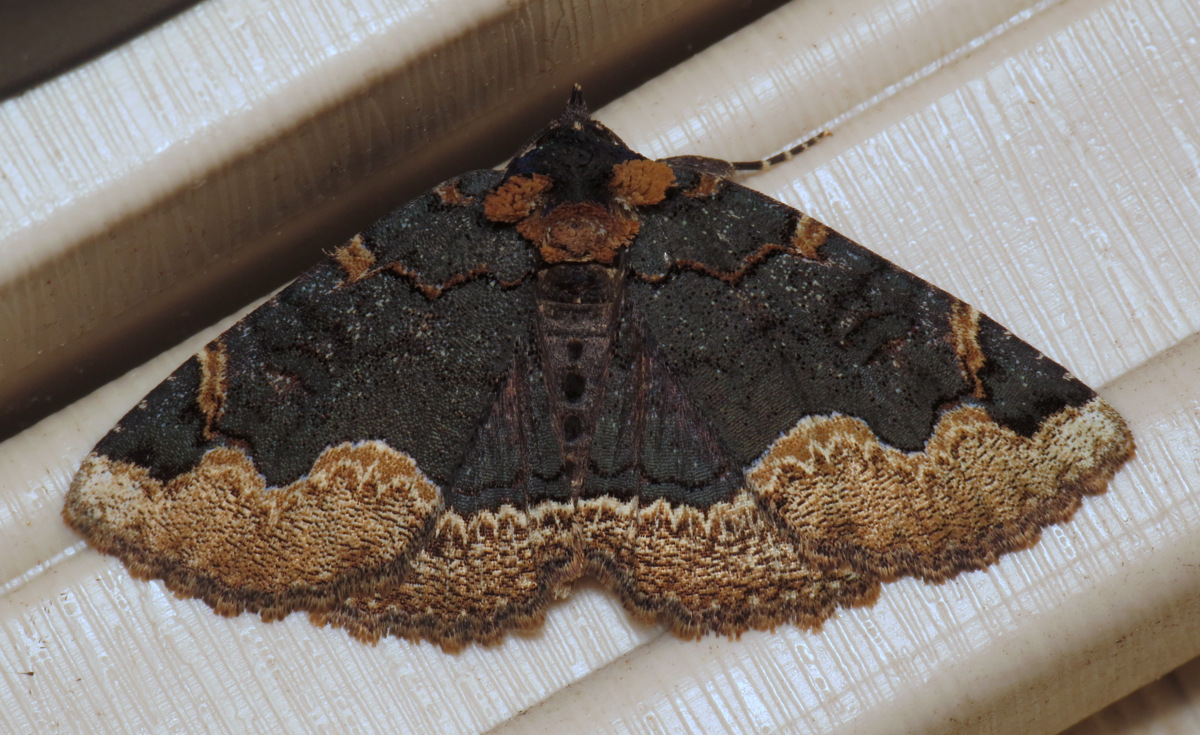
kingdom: Animalia
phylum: Arthropoda
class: Insecta
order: Lepidoptera
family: Erebidae
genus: Zale
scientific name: Zale horrida
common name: Horrid zale moth
